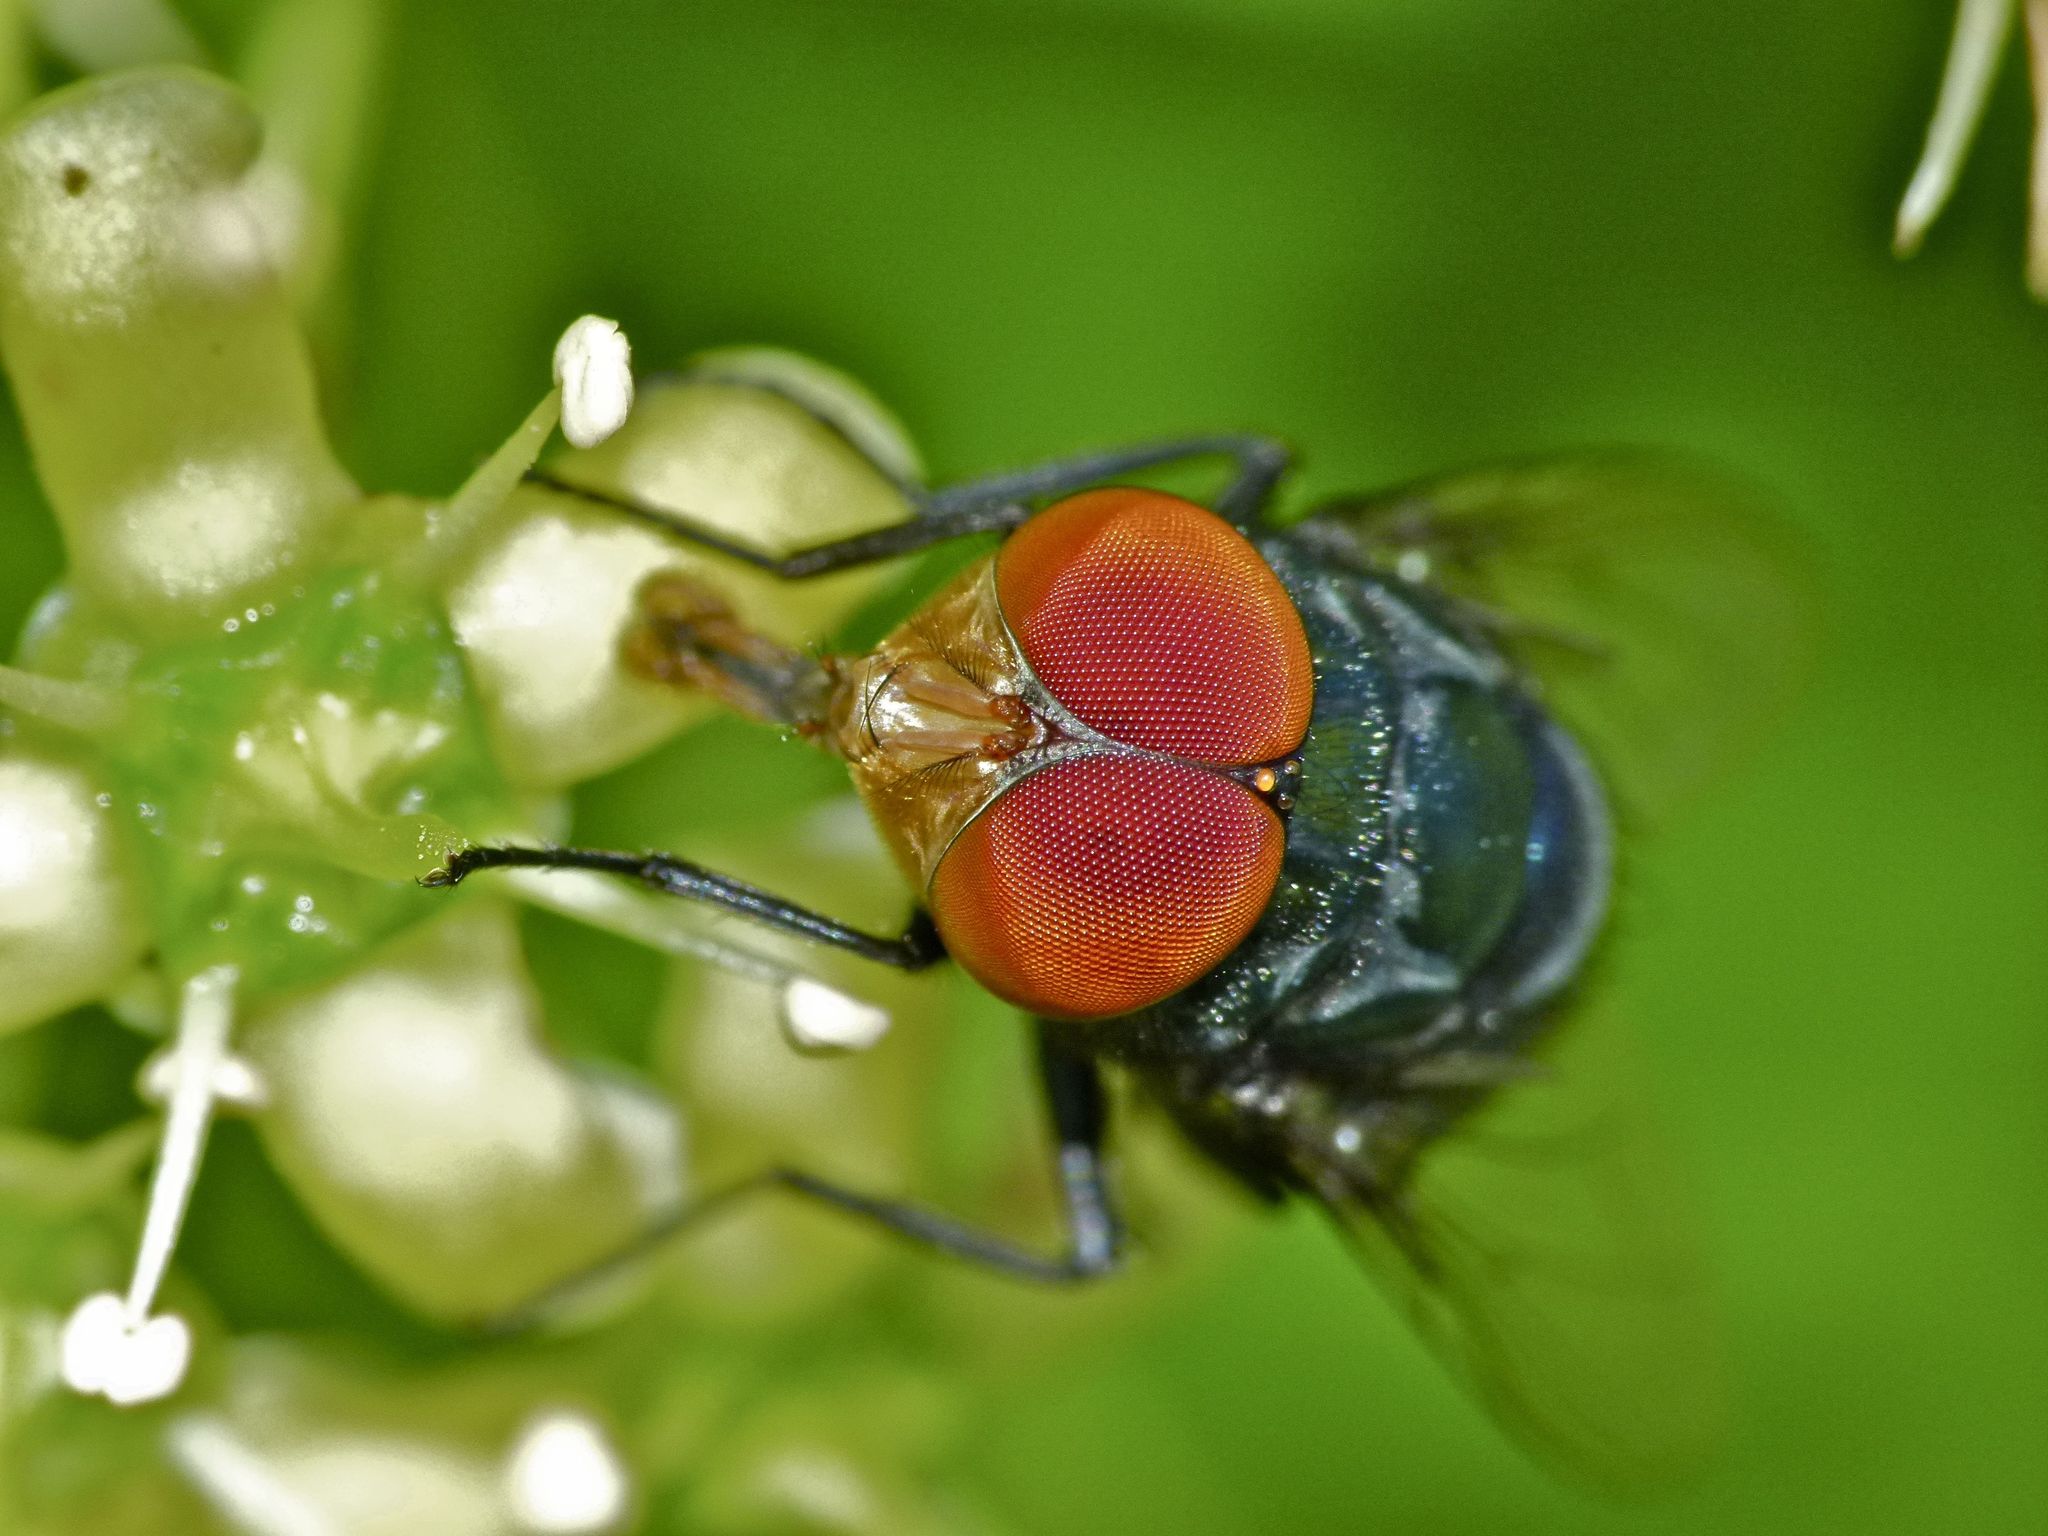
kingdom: Animalia
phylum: Arthropoda
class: Insecta
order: Diptera
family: Calliphoridae
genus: Chrysomya
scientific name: Chrysomya megacephala
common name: Blow fly
